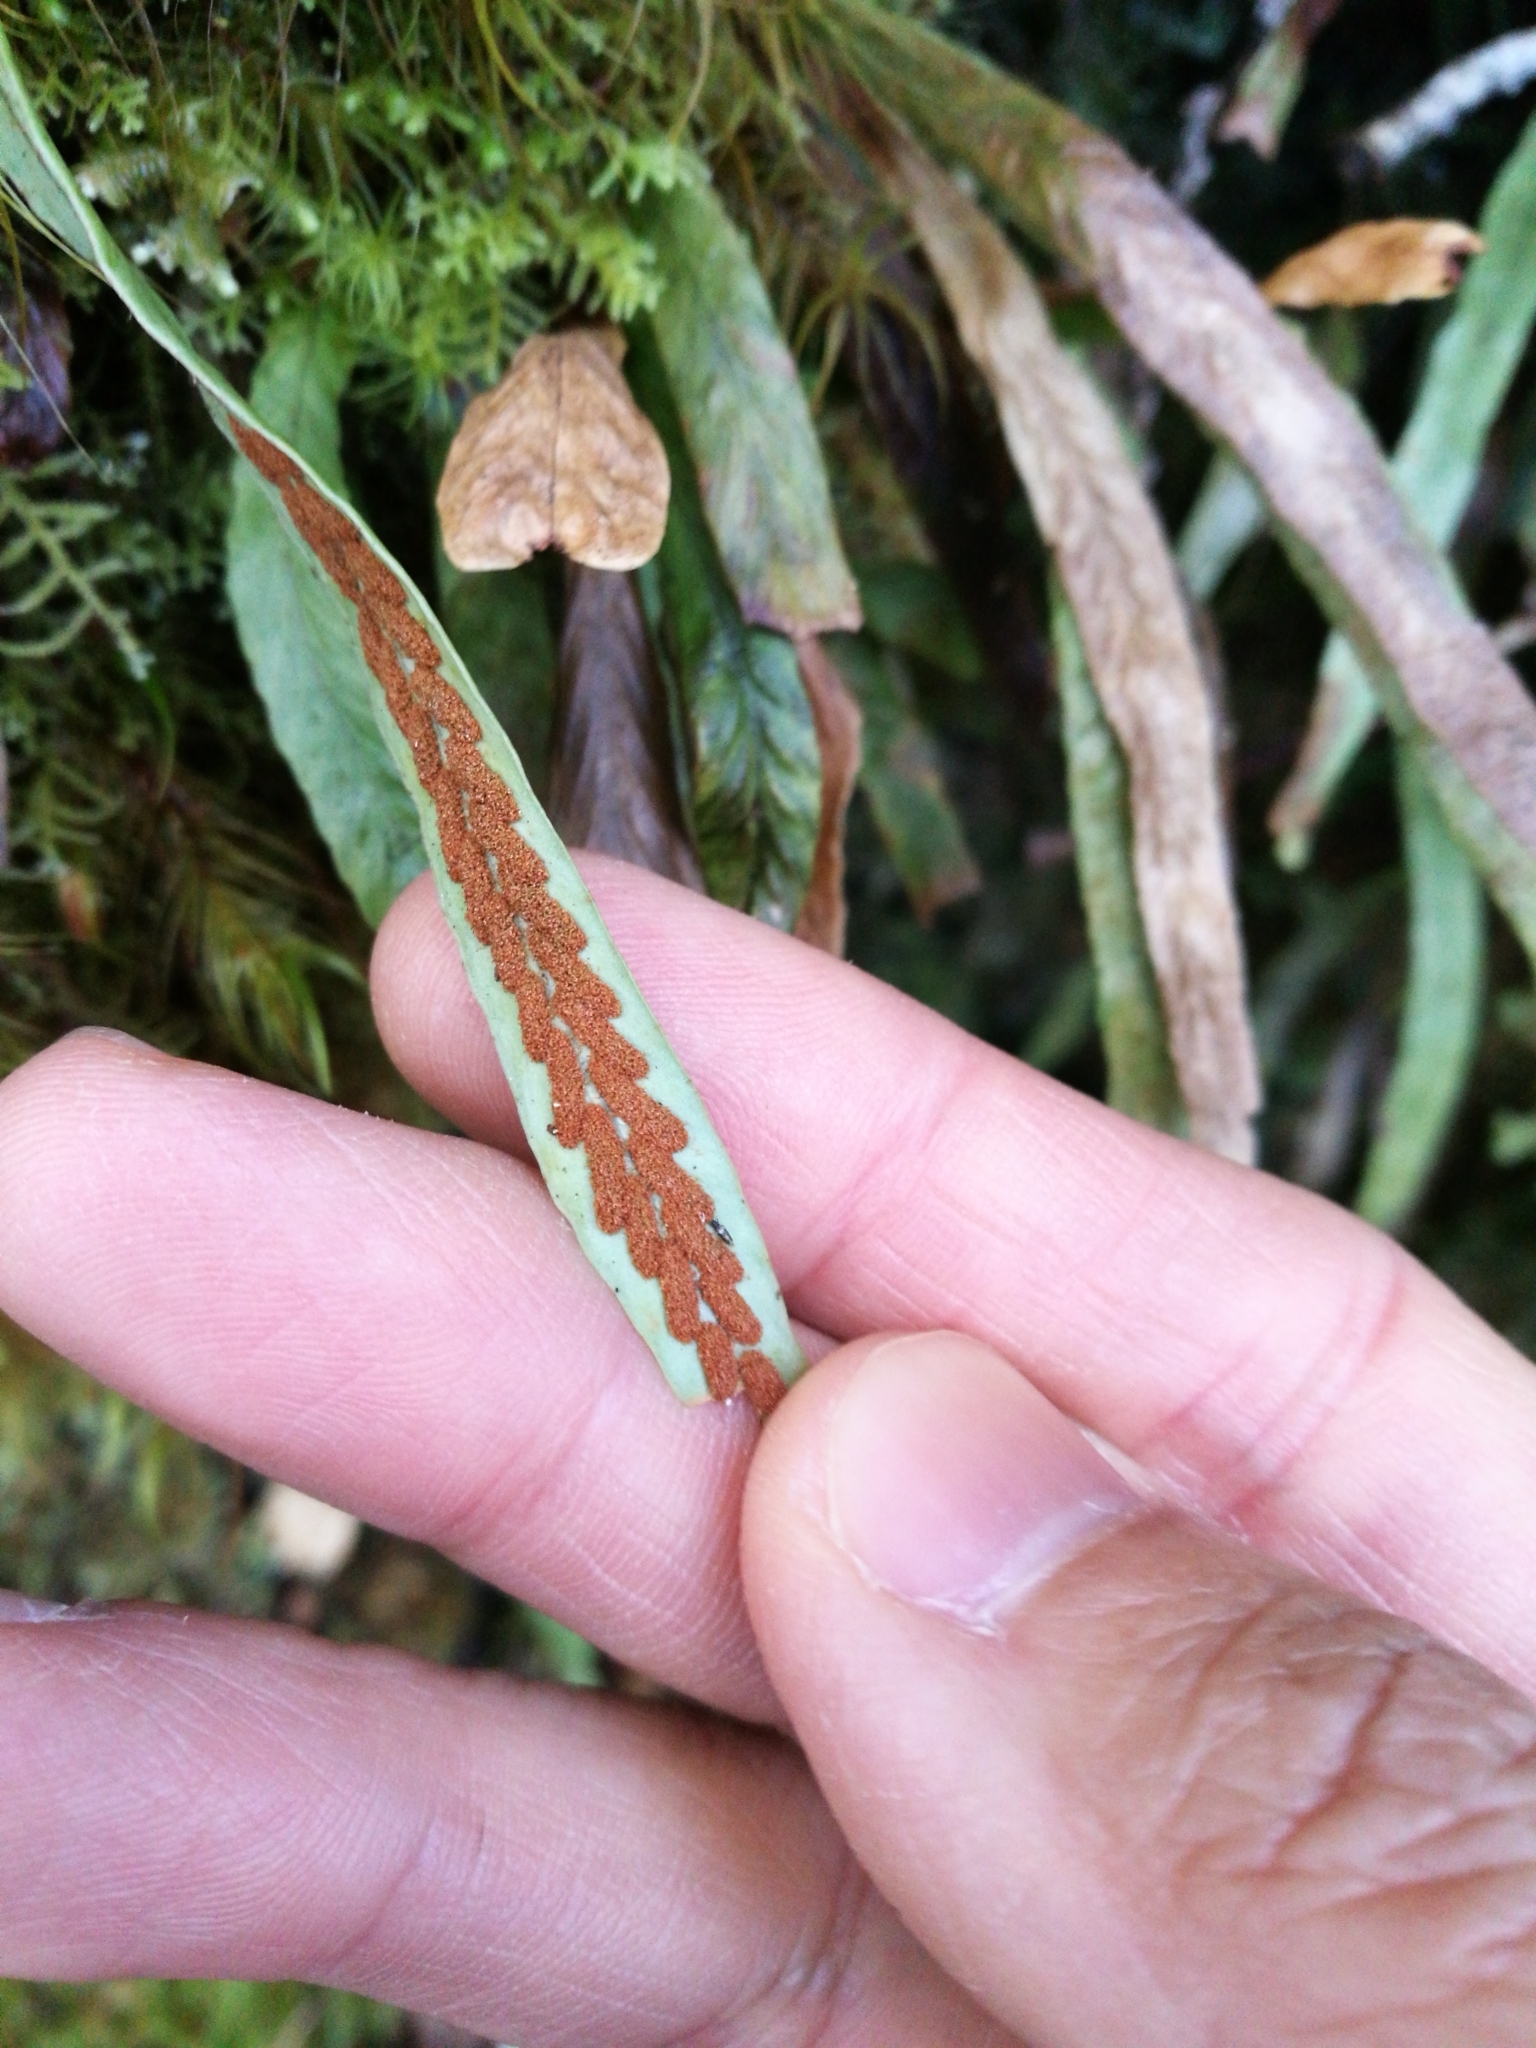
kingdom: Plantae
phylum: Tracheophyta
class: Polypodiopsida
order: Polypodiales
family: Polypodiaceae
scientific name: Polypodiaceae
